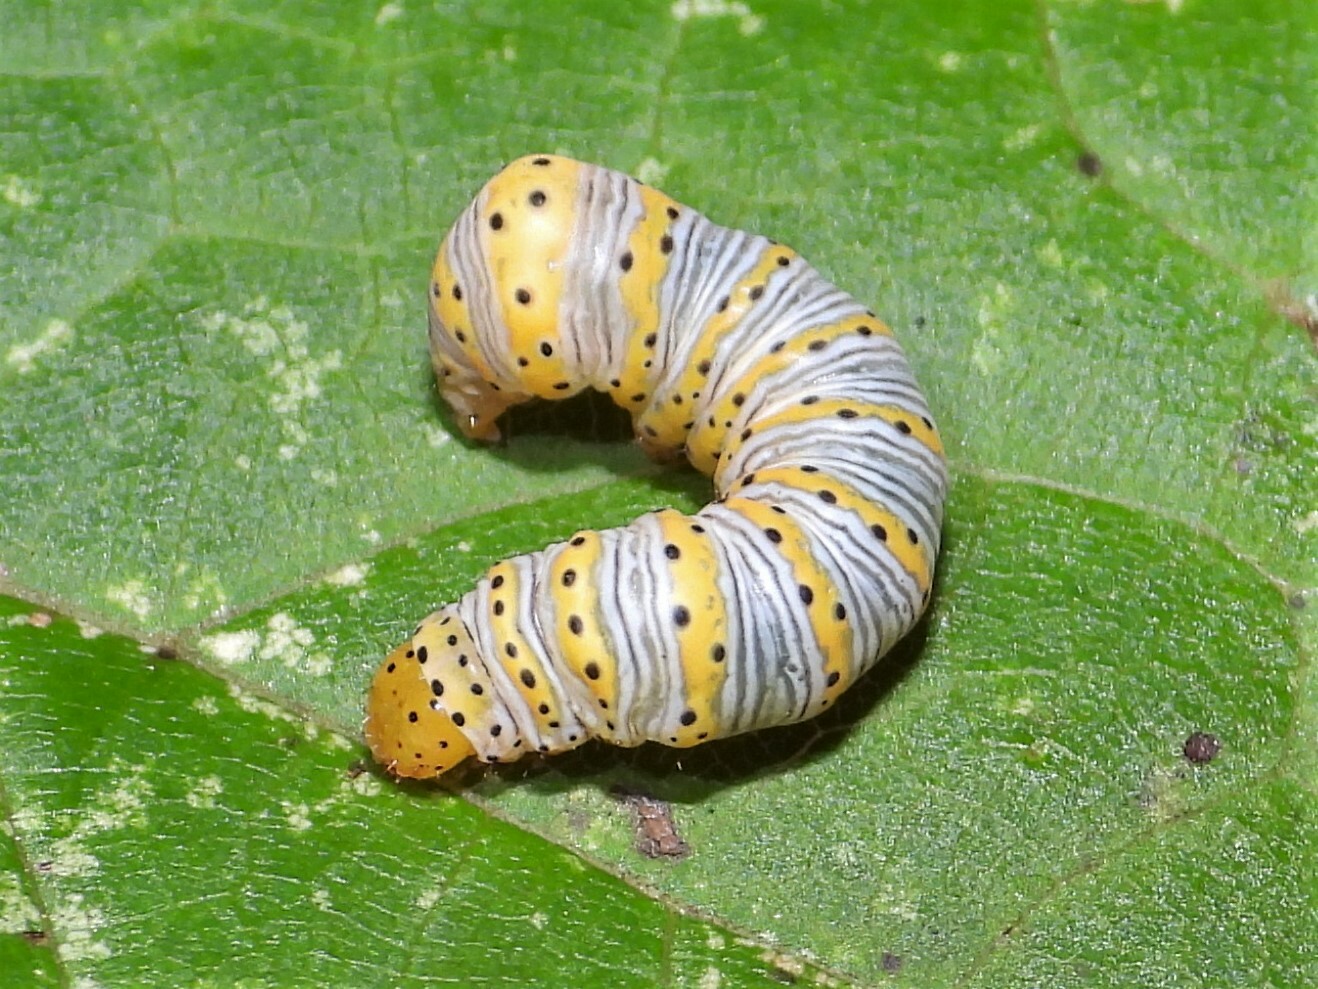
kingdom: Animalia
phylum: Arthropoda
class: Insecta
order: Lepidoptera
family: Noctuidae
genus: Eudryas
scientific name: Eudryas grata
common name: Beautiful wood-nymph
